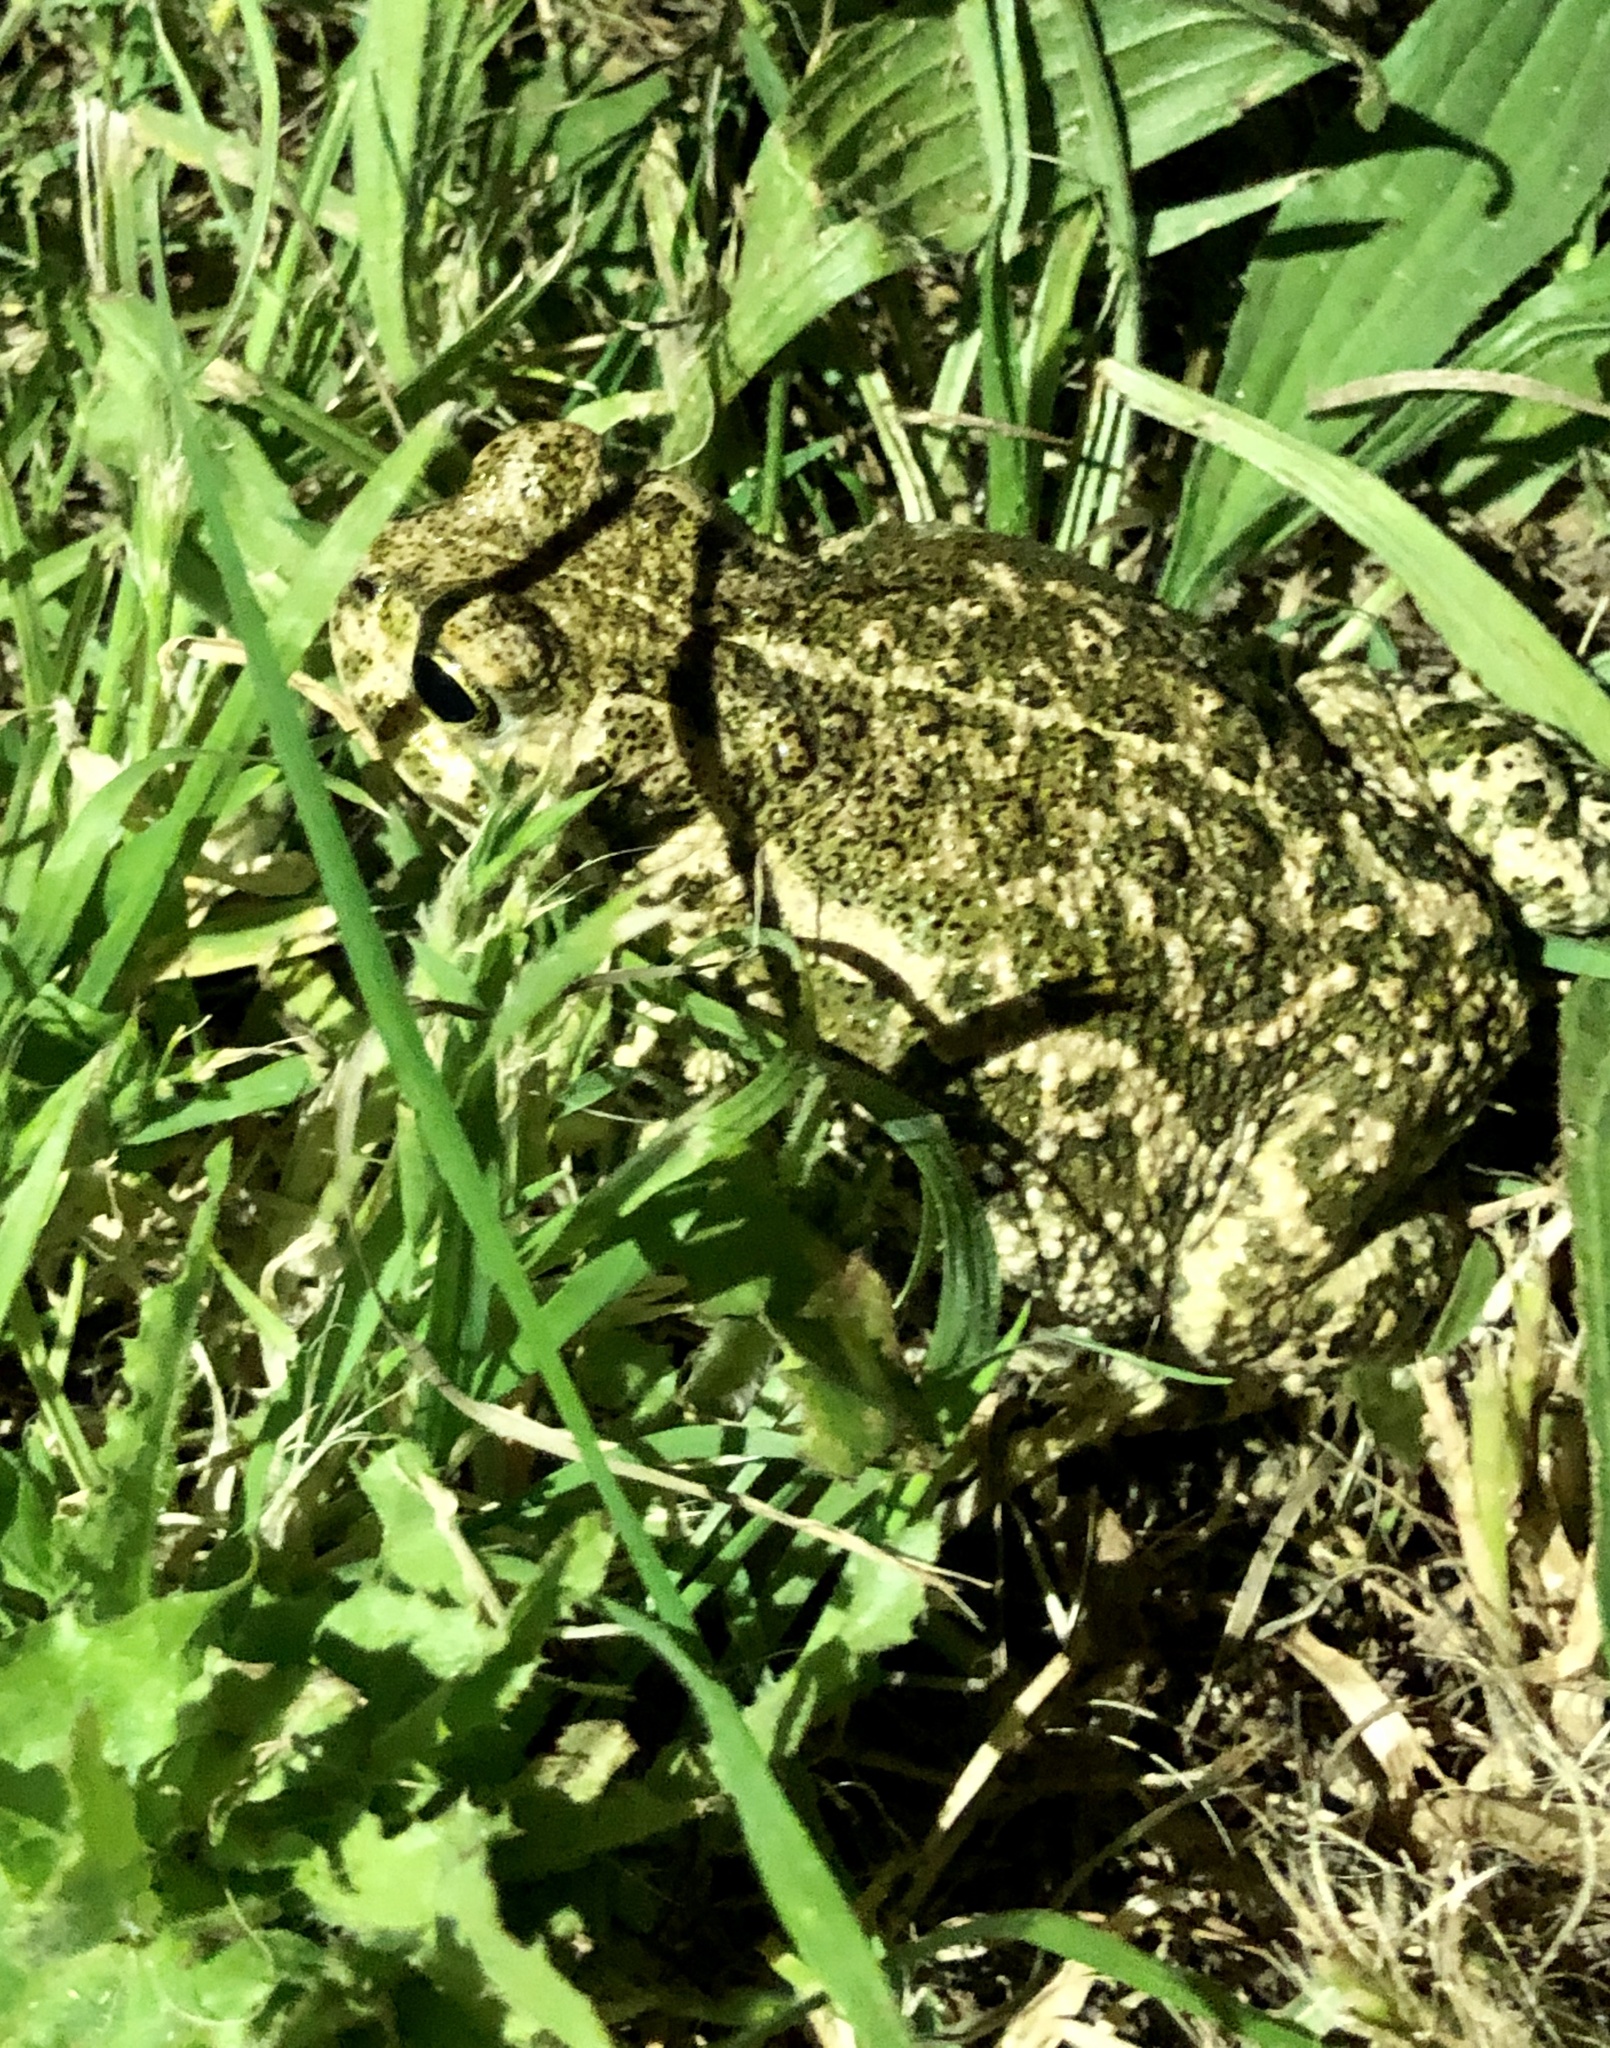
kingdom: Animalia
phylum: Chordata
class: Amphibia
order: Anura
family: Bufonidae
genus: Epidalea
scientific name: Epidalea calamita
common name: Natterjack toad
